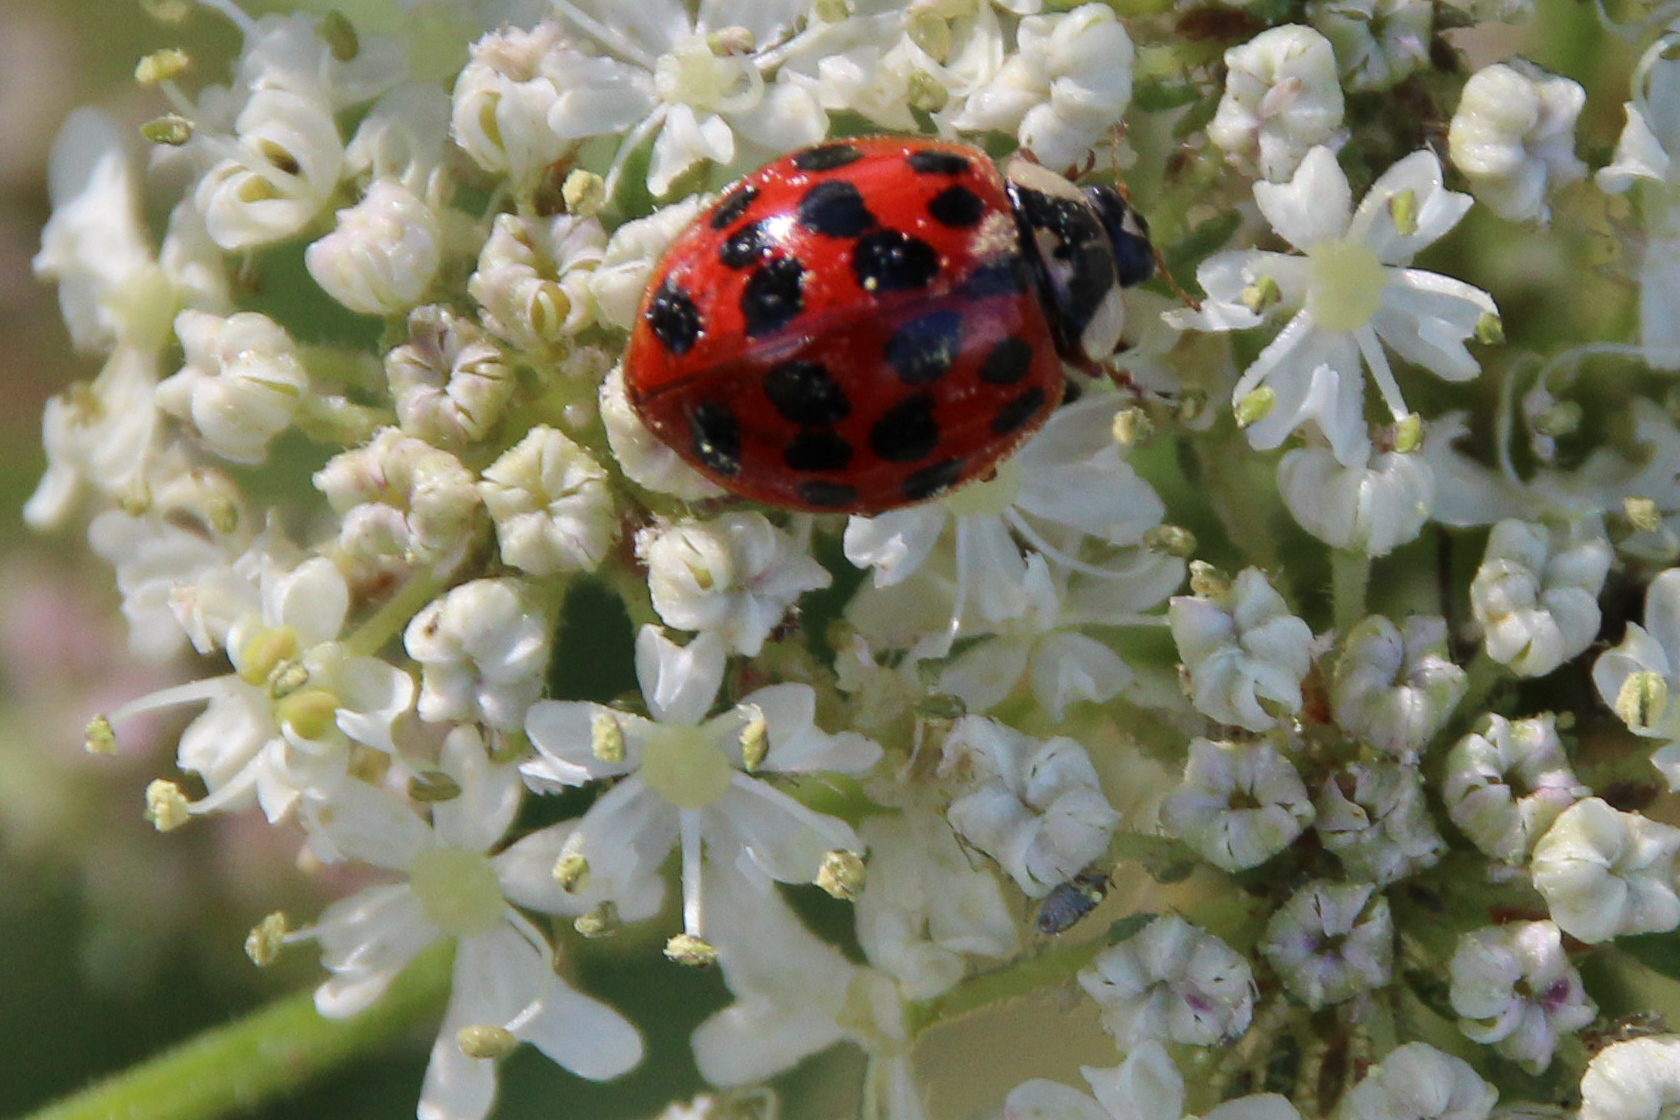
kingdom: Animalia
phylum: Arthropoda
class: Insecta
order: Coleoptera
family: Coccinellidae
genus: Harmonia
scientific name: Harmonia axyridis
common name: Harlequin ladybird
